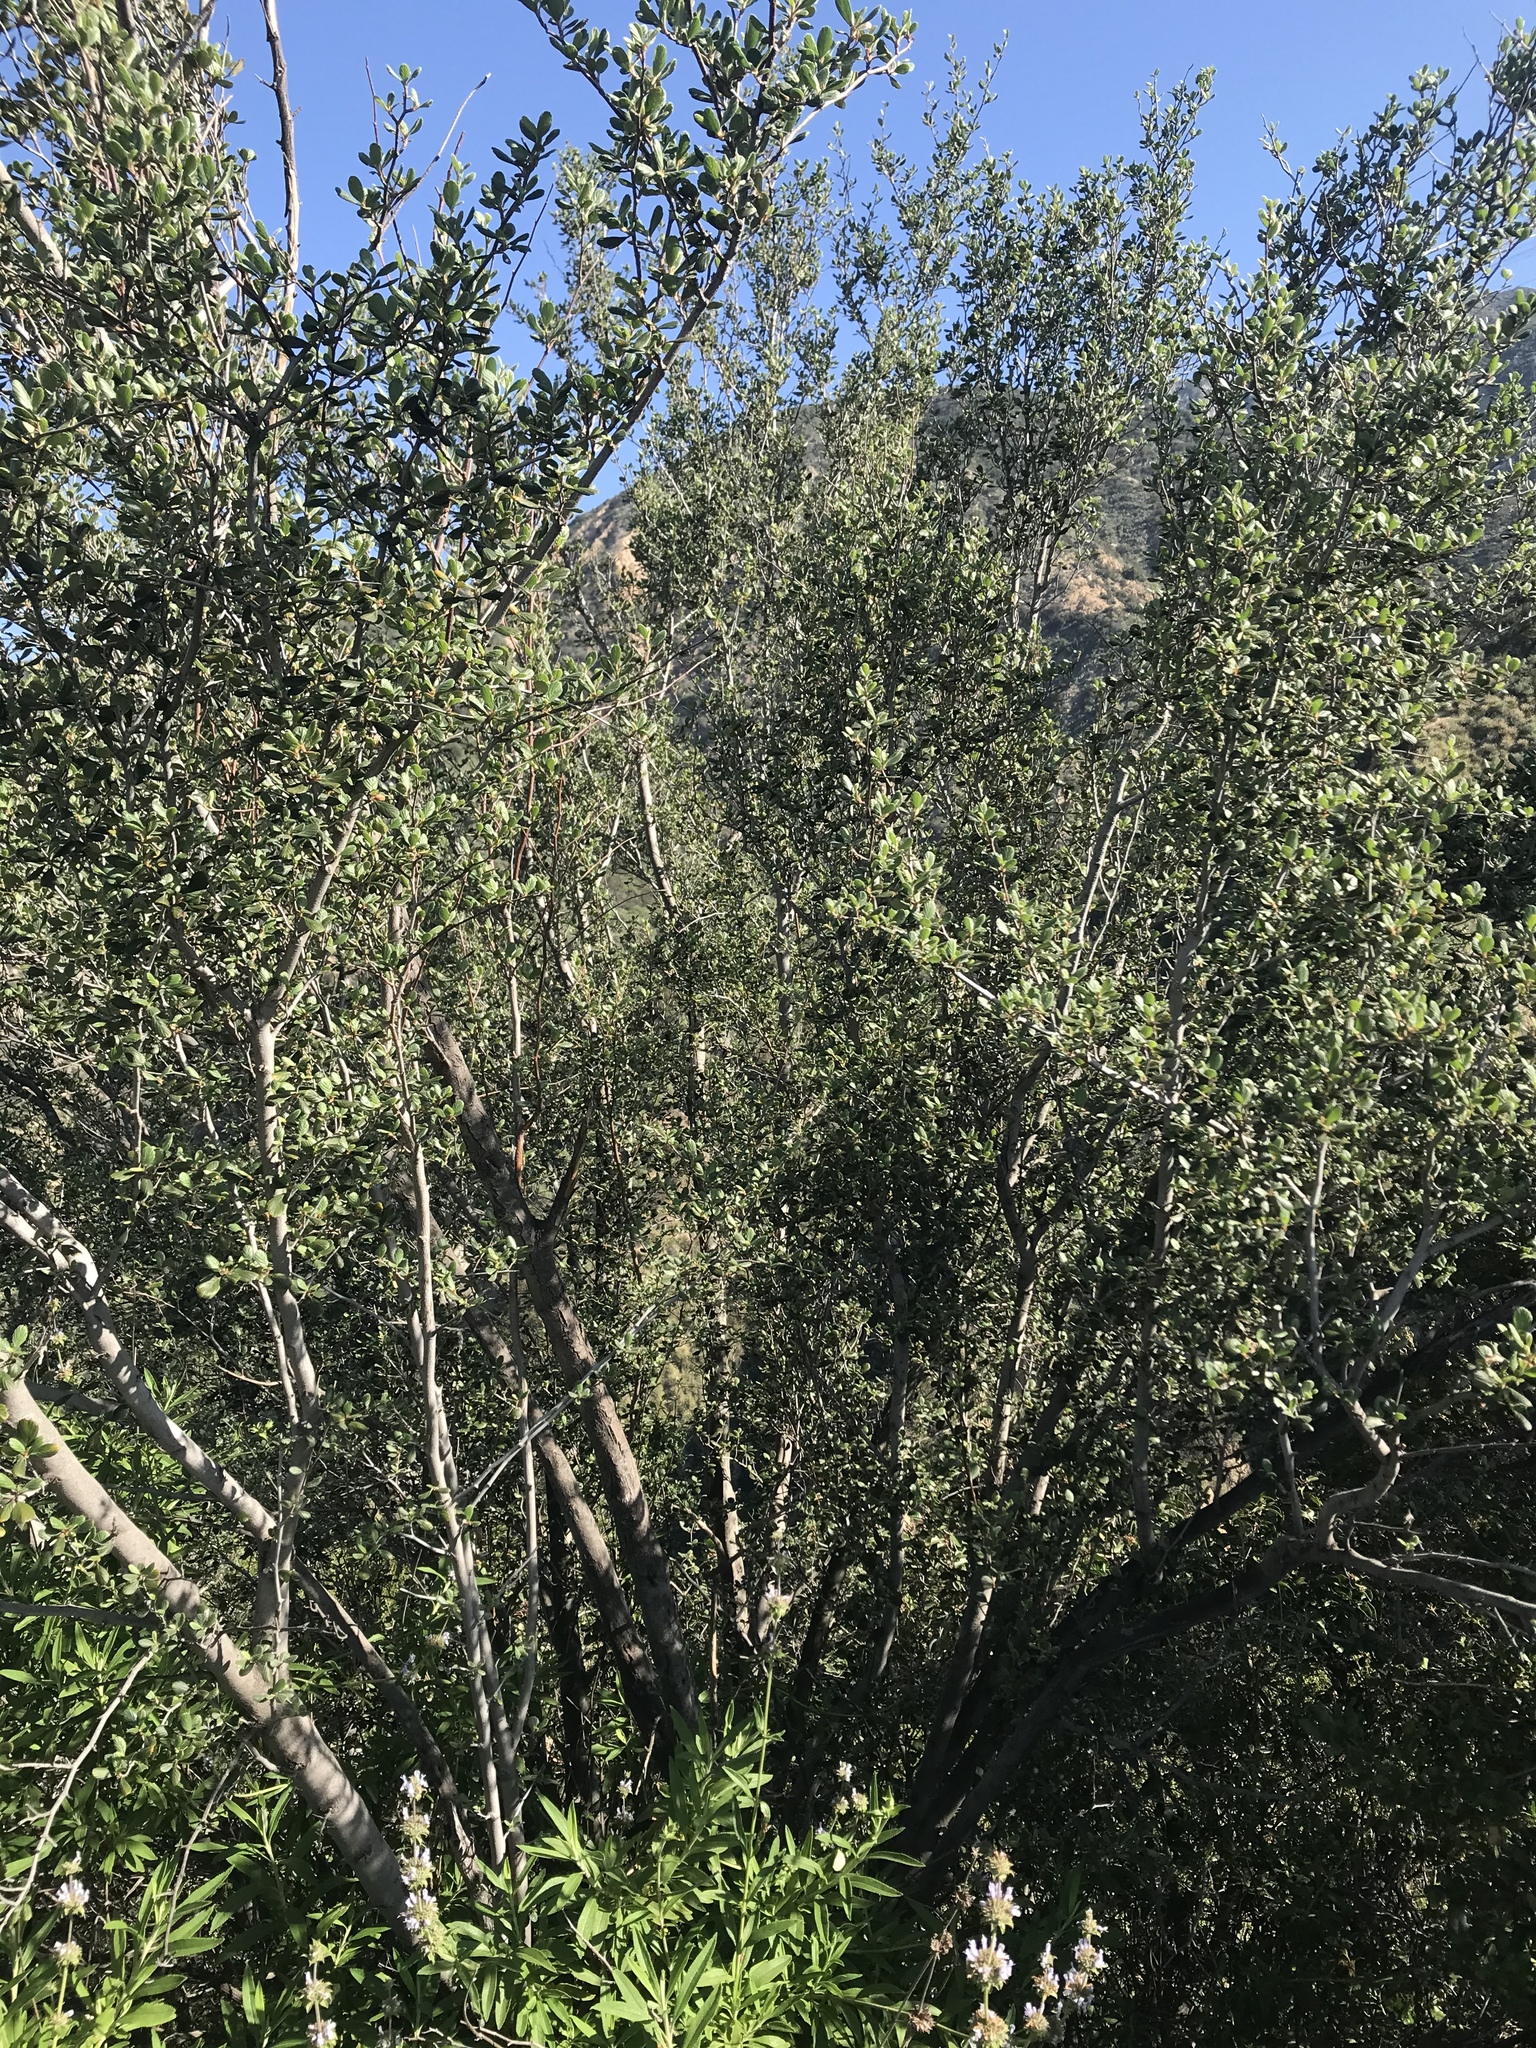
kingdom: Plantae
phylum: Tracheophyta
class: Magnoliopsida
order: Rosales
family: Rosaceae
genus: Cercocarpus
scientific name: Cercocarpus betuloides
